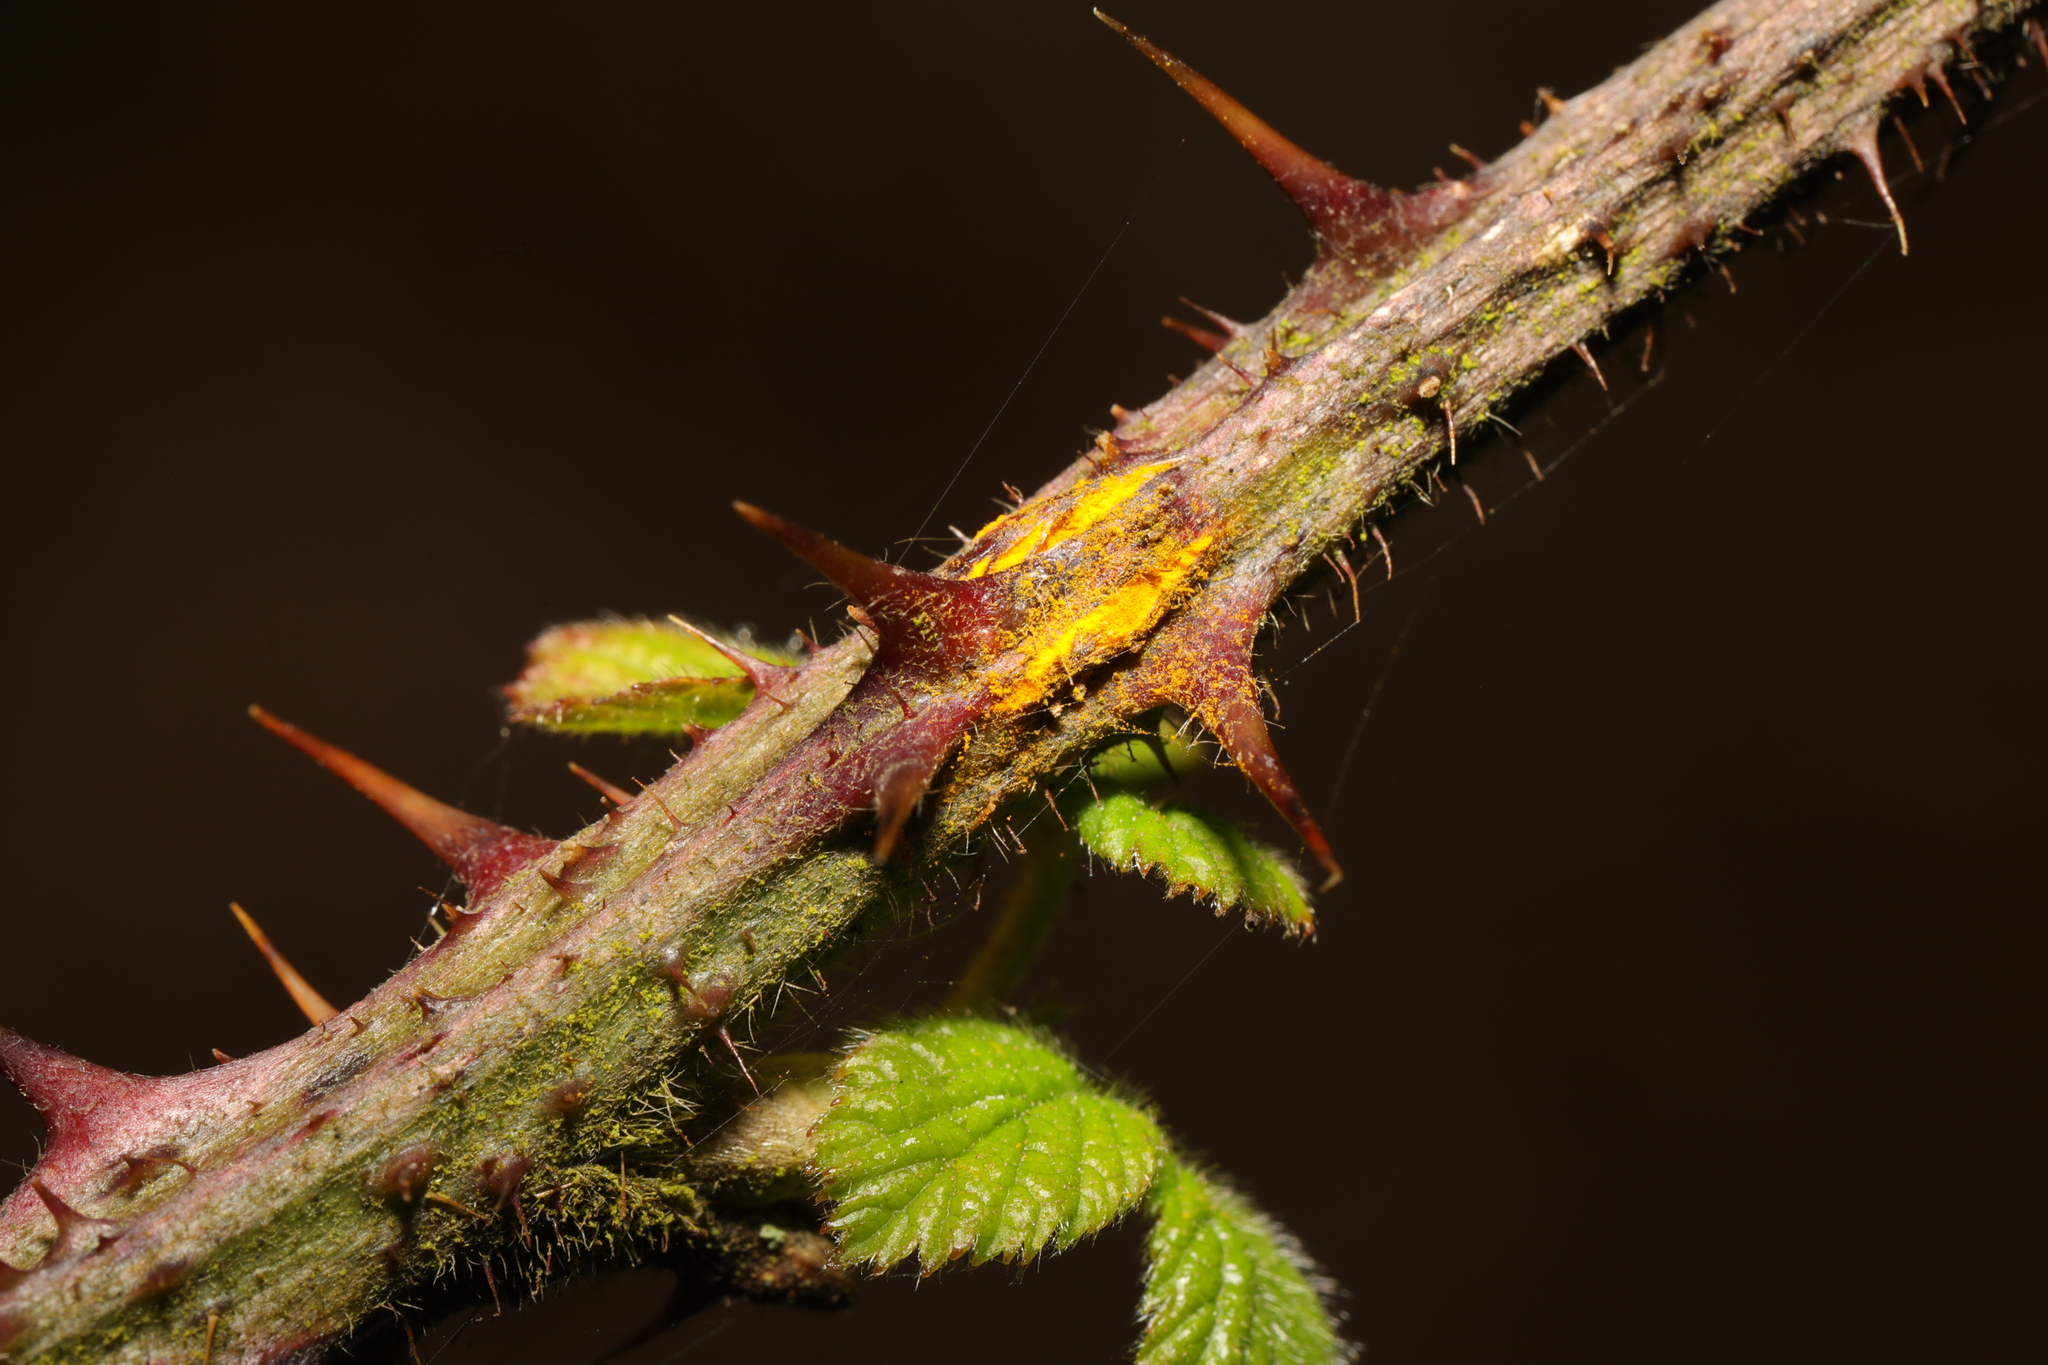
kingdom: Fungi
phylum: Basidiomycota
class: Pucciniomycetes
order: Pucciniales
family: Phragmidiaceae
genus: Kuehneola
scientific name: Kuehneola uredinis
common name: Bramble stem rust
